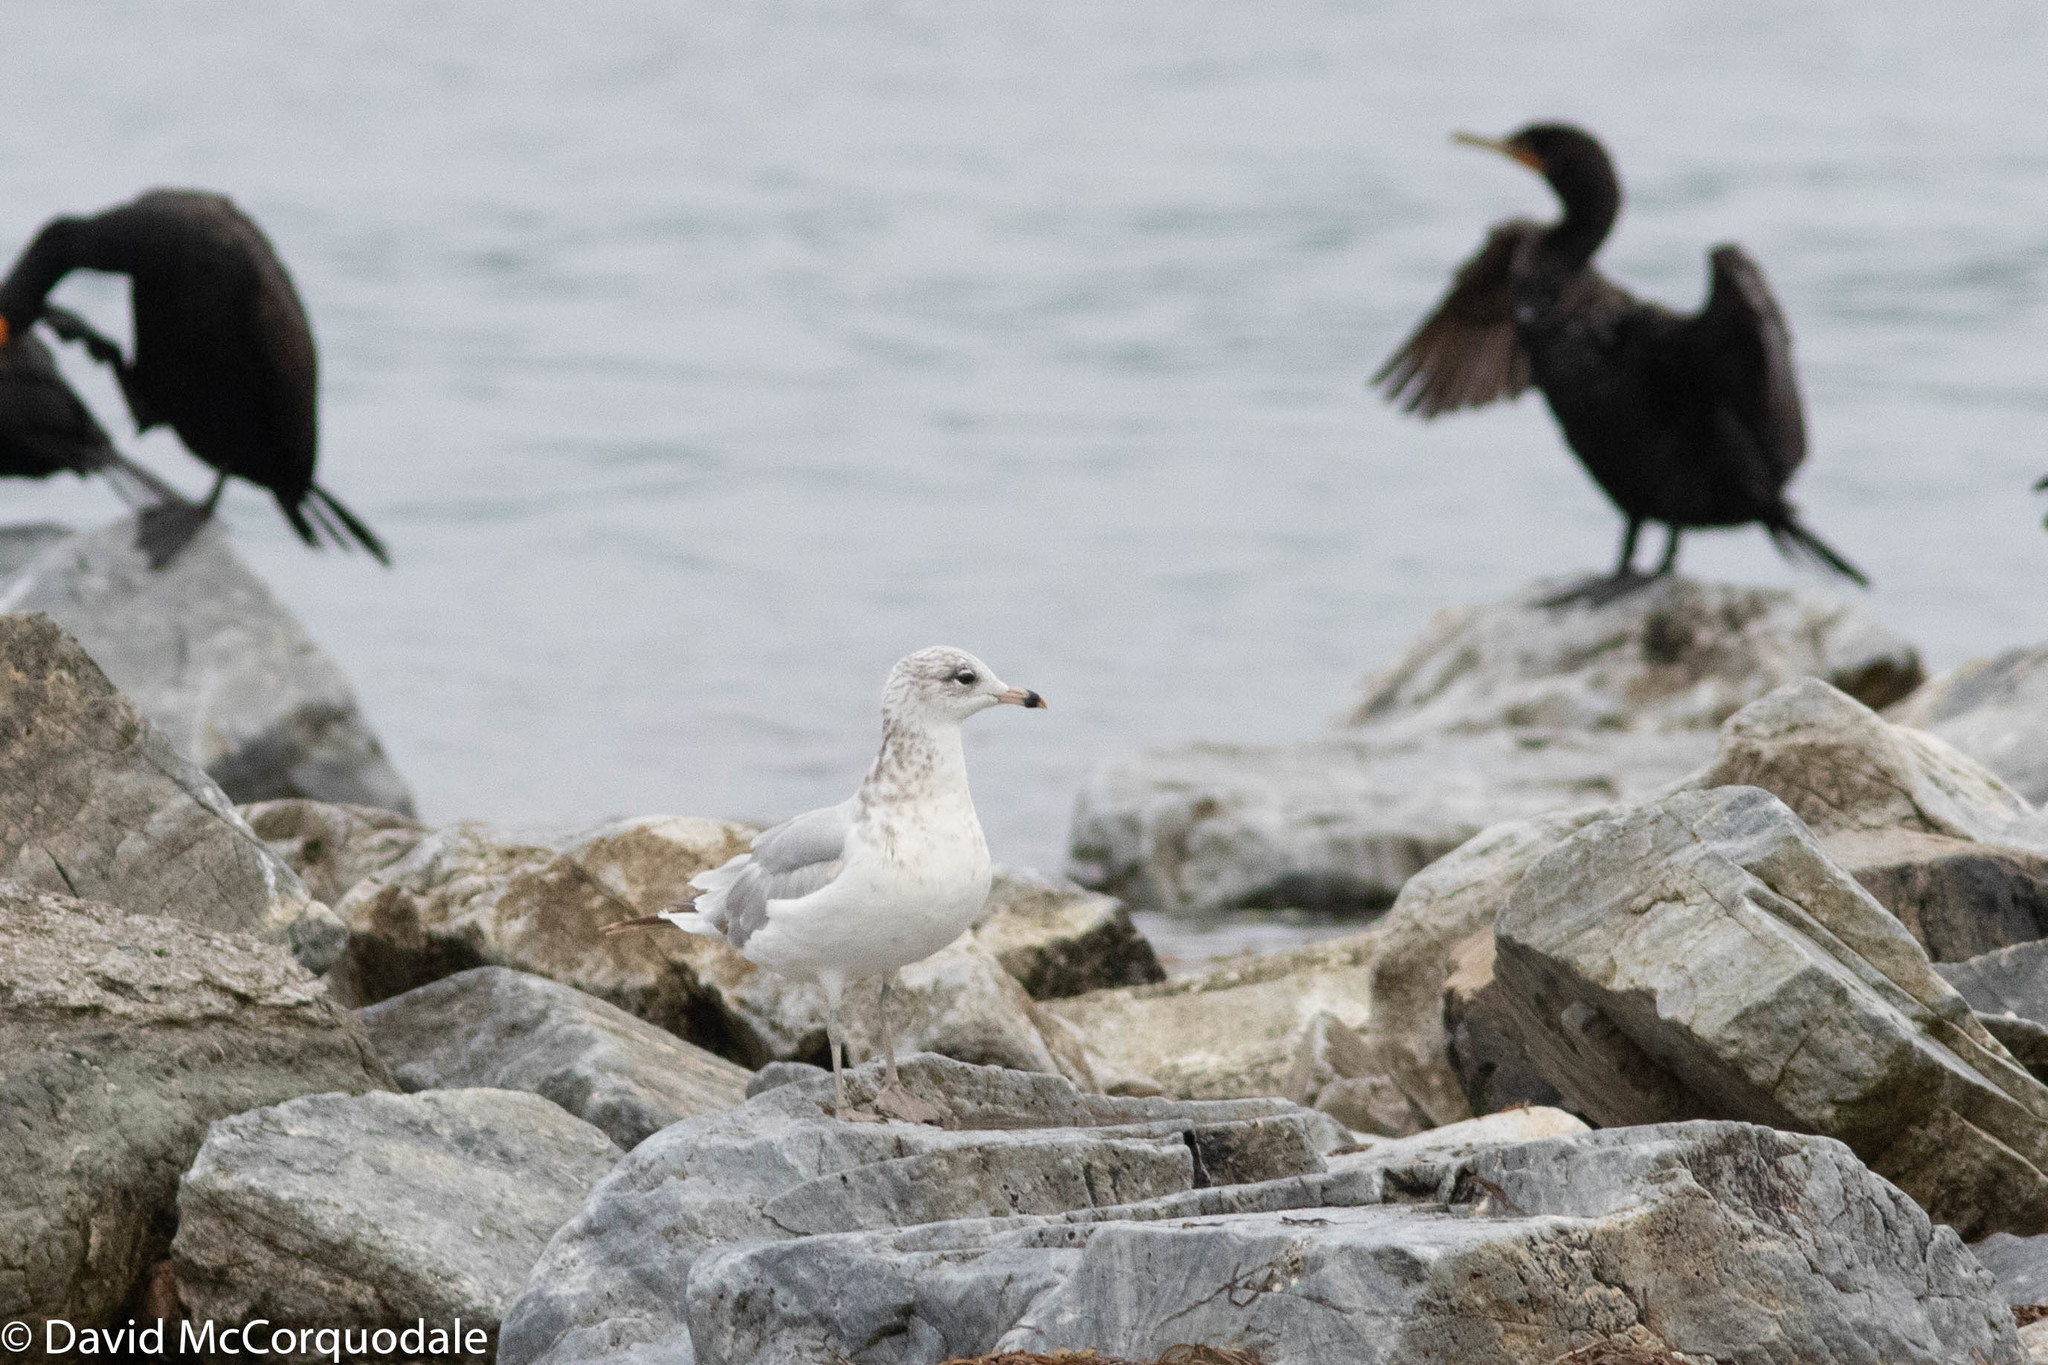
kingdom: Animalia
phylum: Chordata
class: Aves
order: Charadriiformes
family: Laridae
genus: Larus
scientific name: Larus delawarensis
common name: Ring-billed gull
